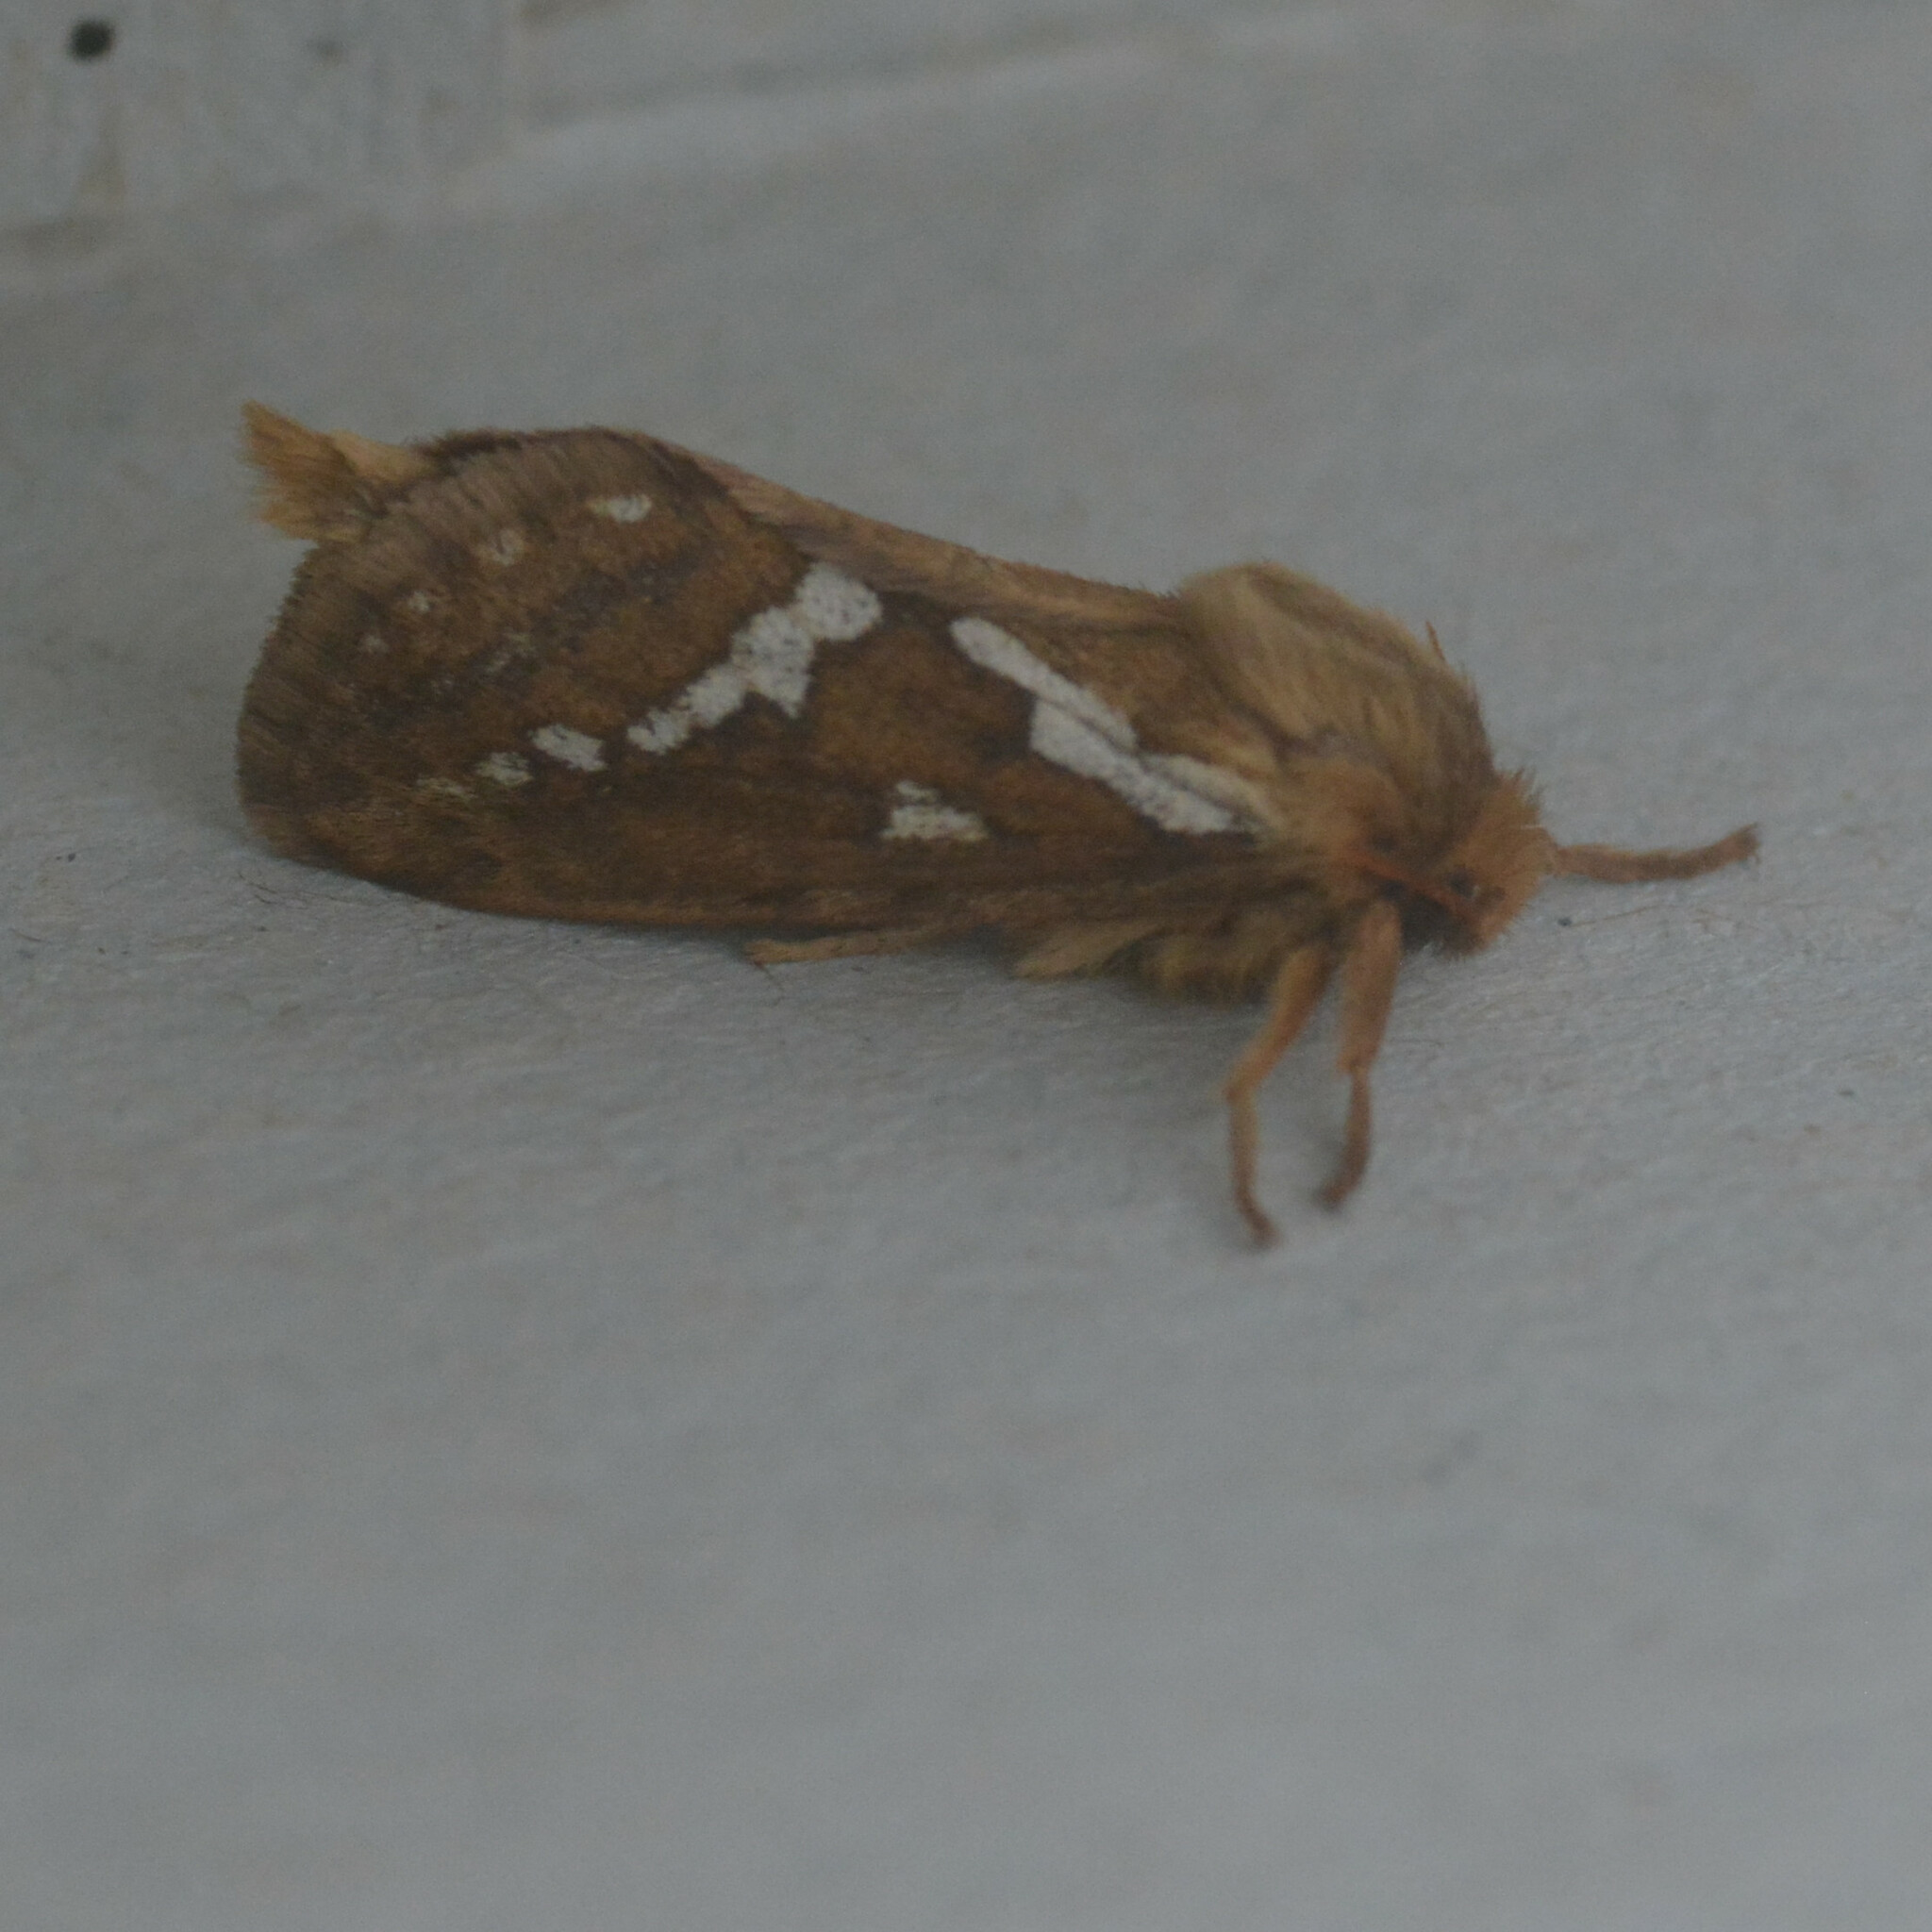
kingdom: Animalia
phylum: Arthropoda
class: Insecta
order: Lepidoptera
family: Hepialidae
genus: Korscheltellus
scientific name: Korscheltellus lupulina
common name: Common swift
